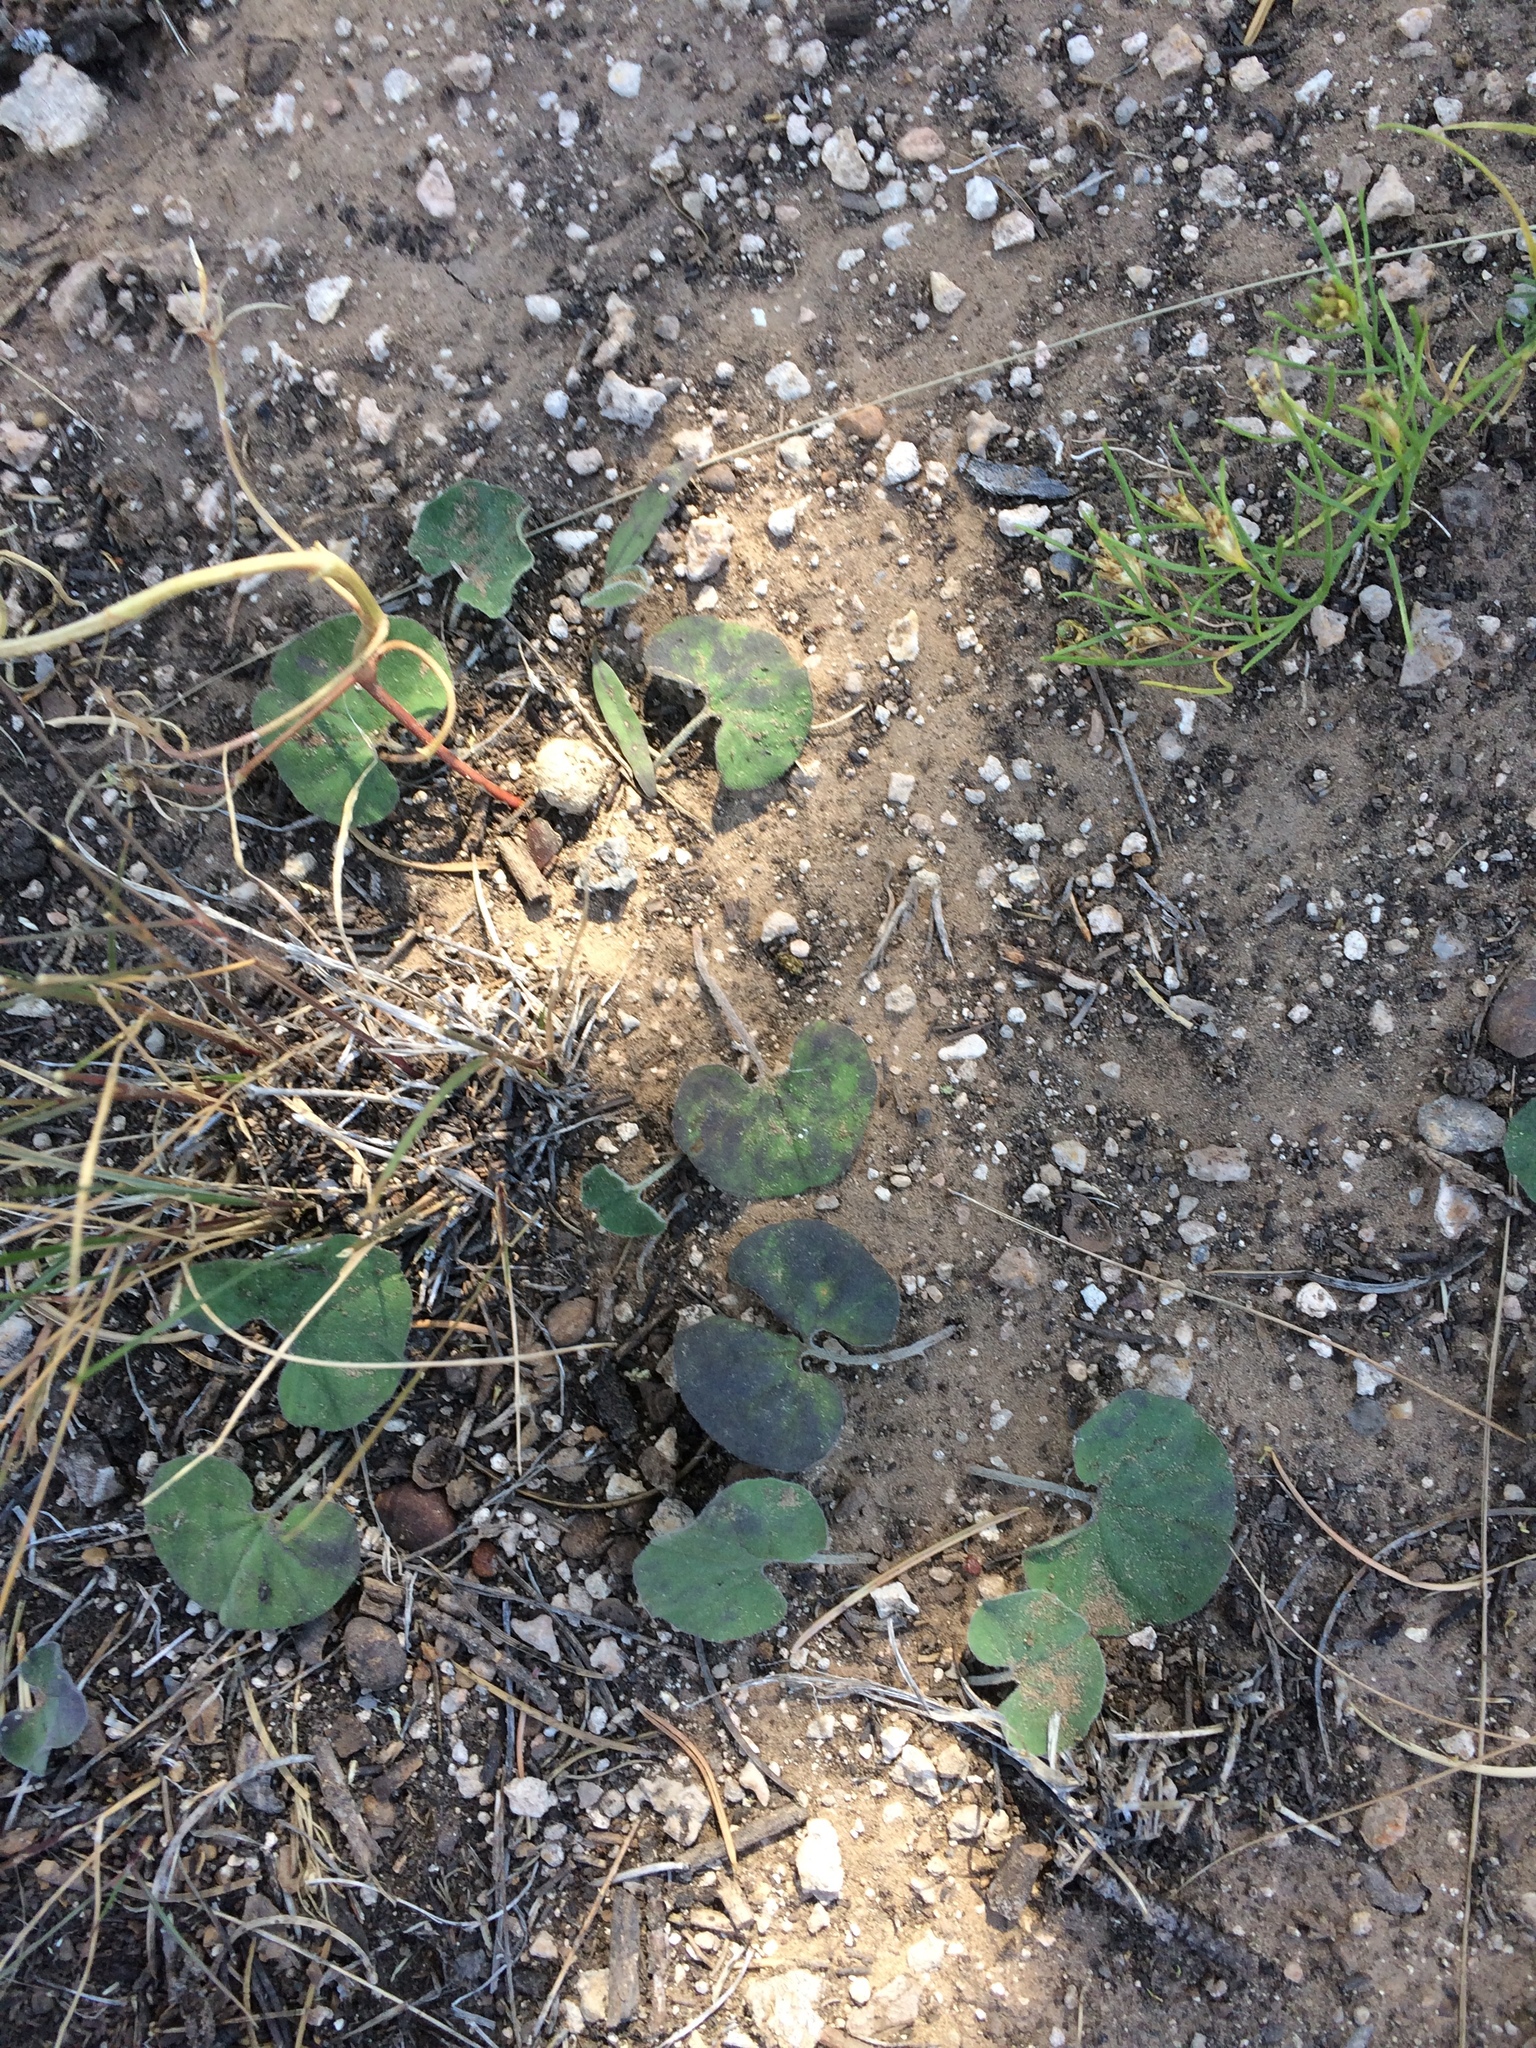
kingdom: Plantae
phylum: Tracheophyta
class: Magnoliopsida
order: Solanales
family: Convolvulaceae
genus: Dichondra
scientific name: Dichondra brachypoda
